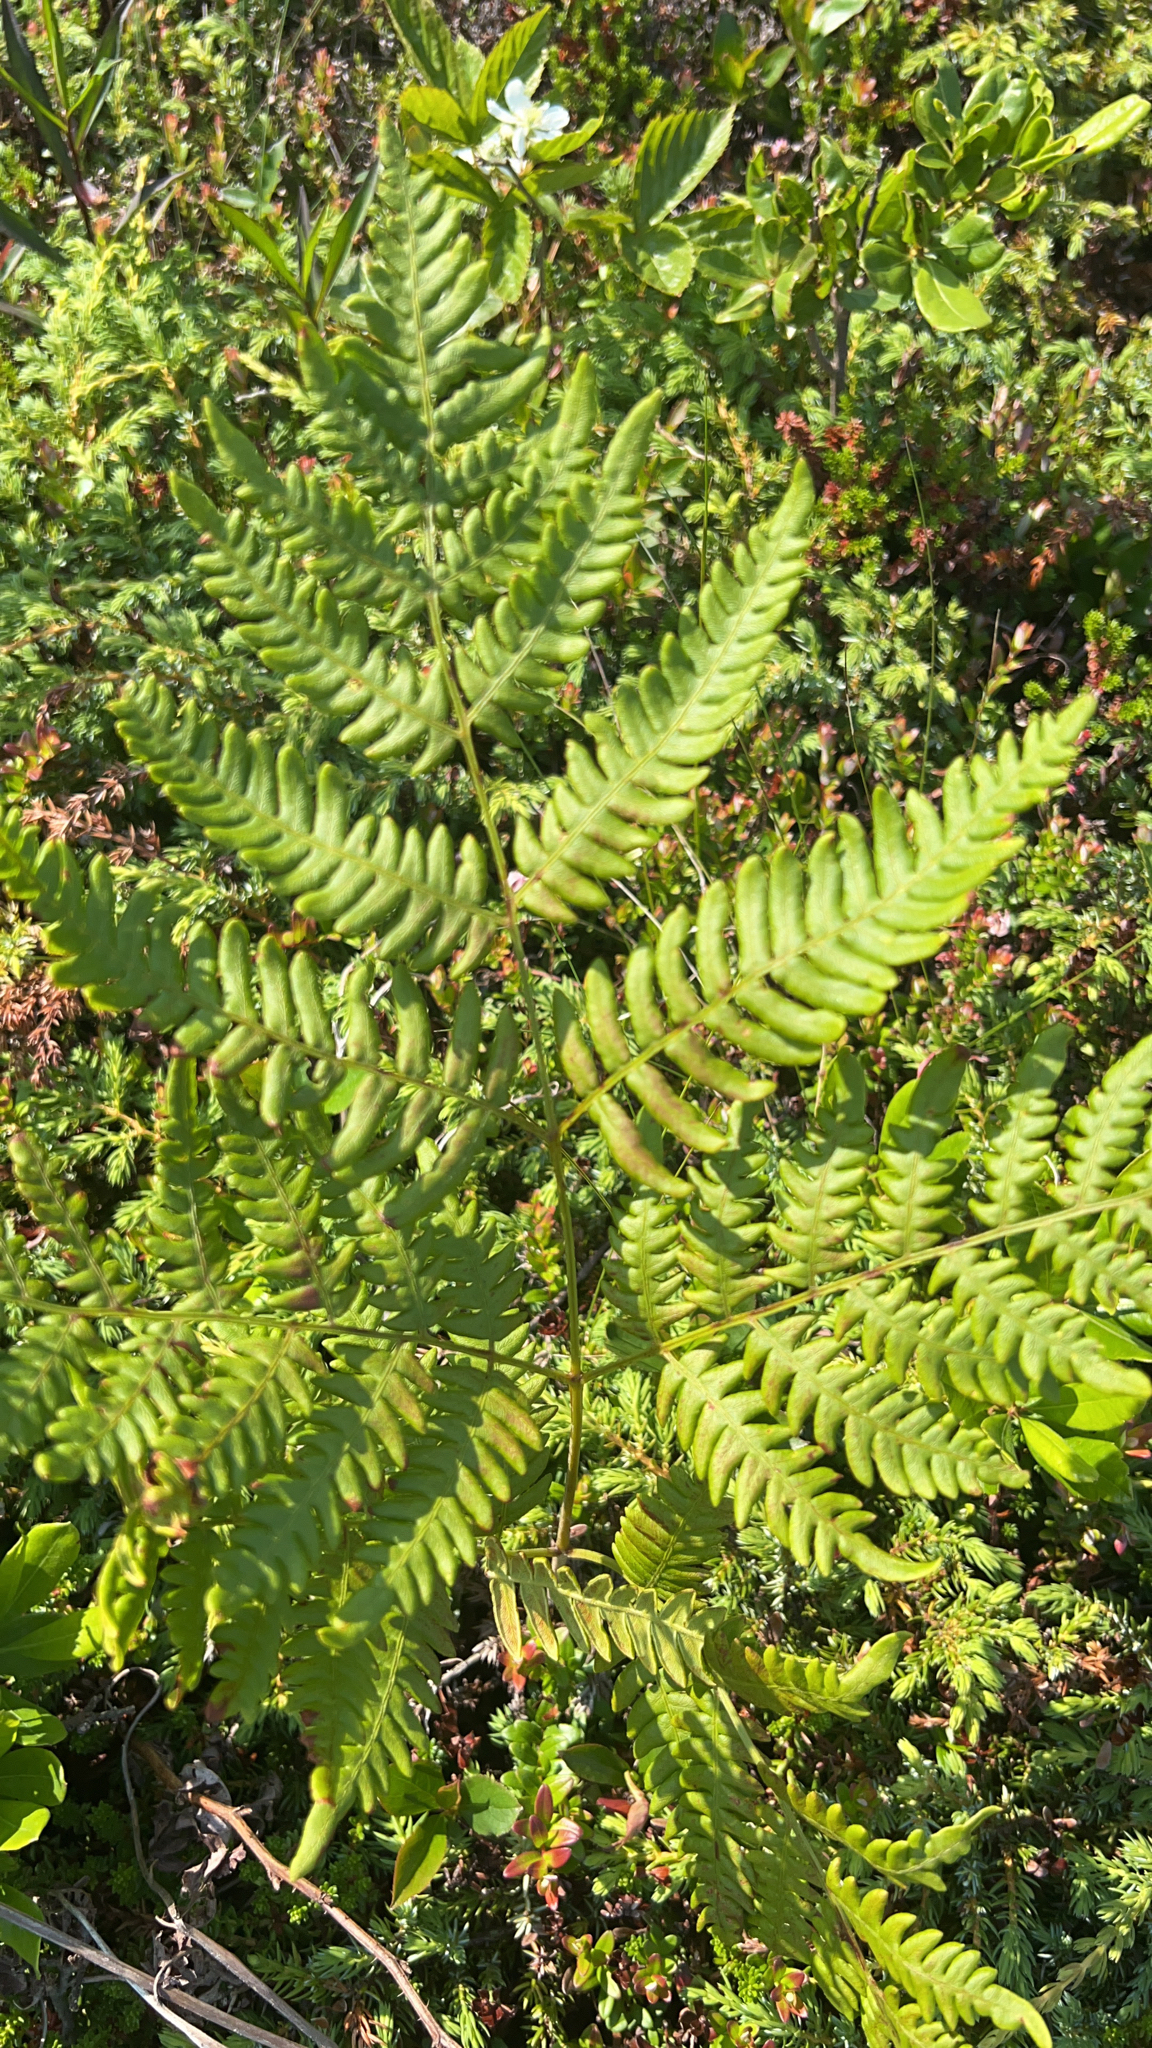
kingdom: Plantae
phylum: Tracheophyta
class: Polypodiopsida
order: Polypodiales
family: Dennstaedtiaceae
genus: Pteridium
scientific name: Pteridium aquilinum
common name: Bracken
